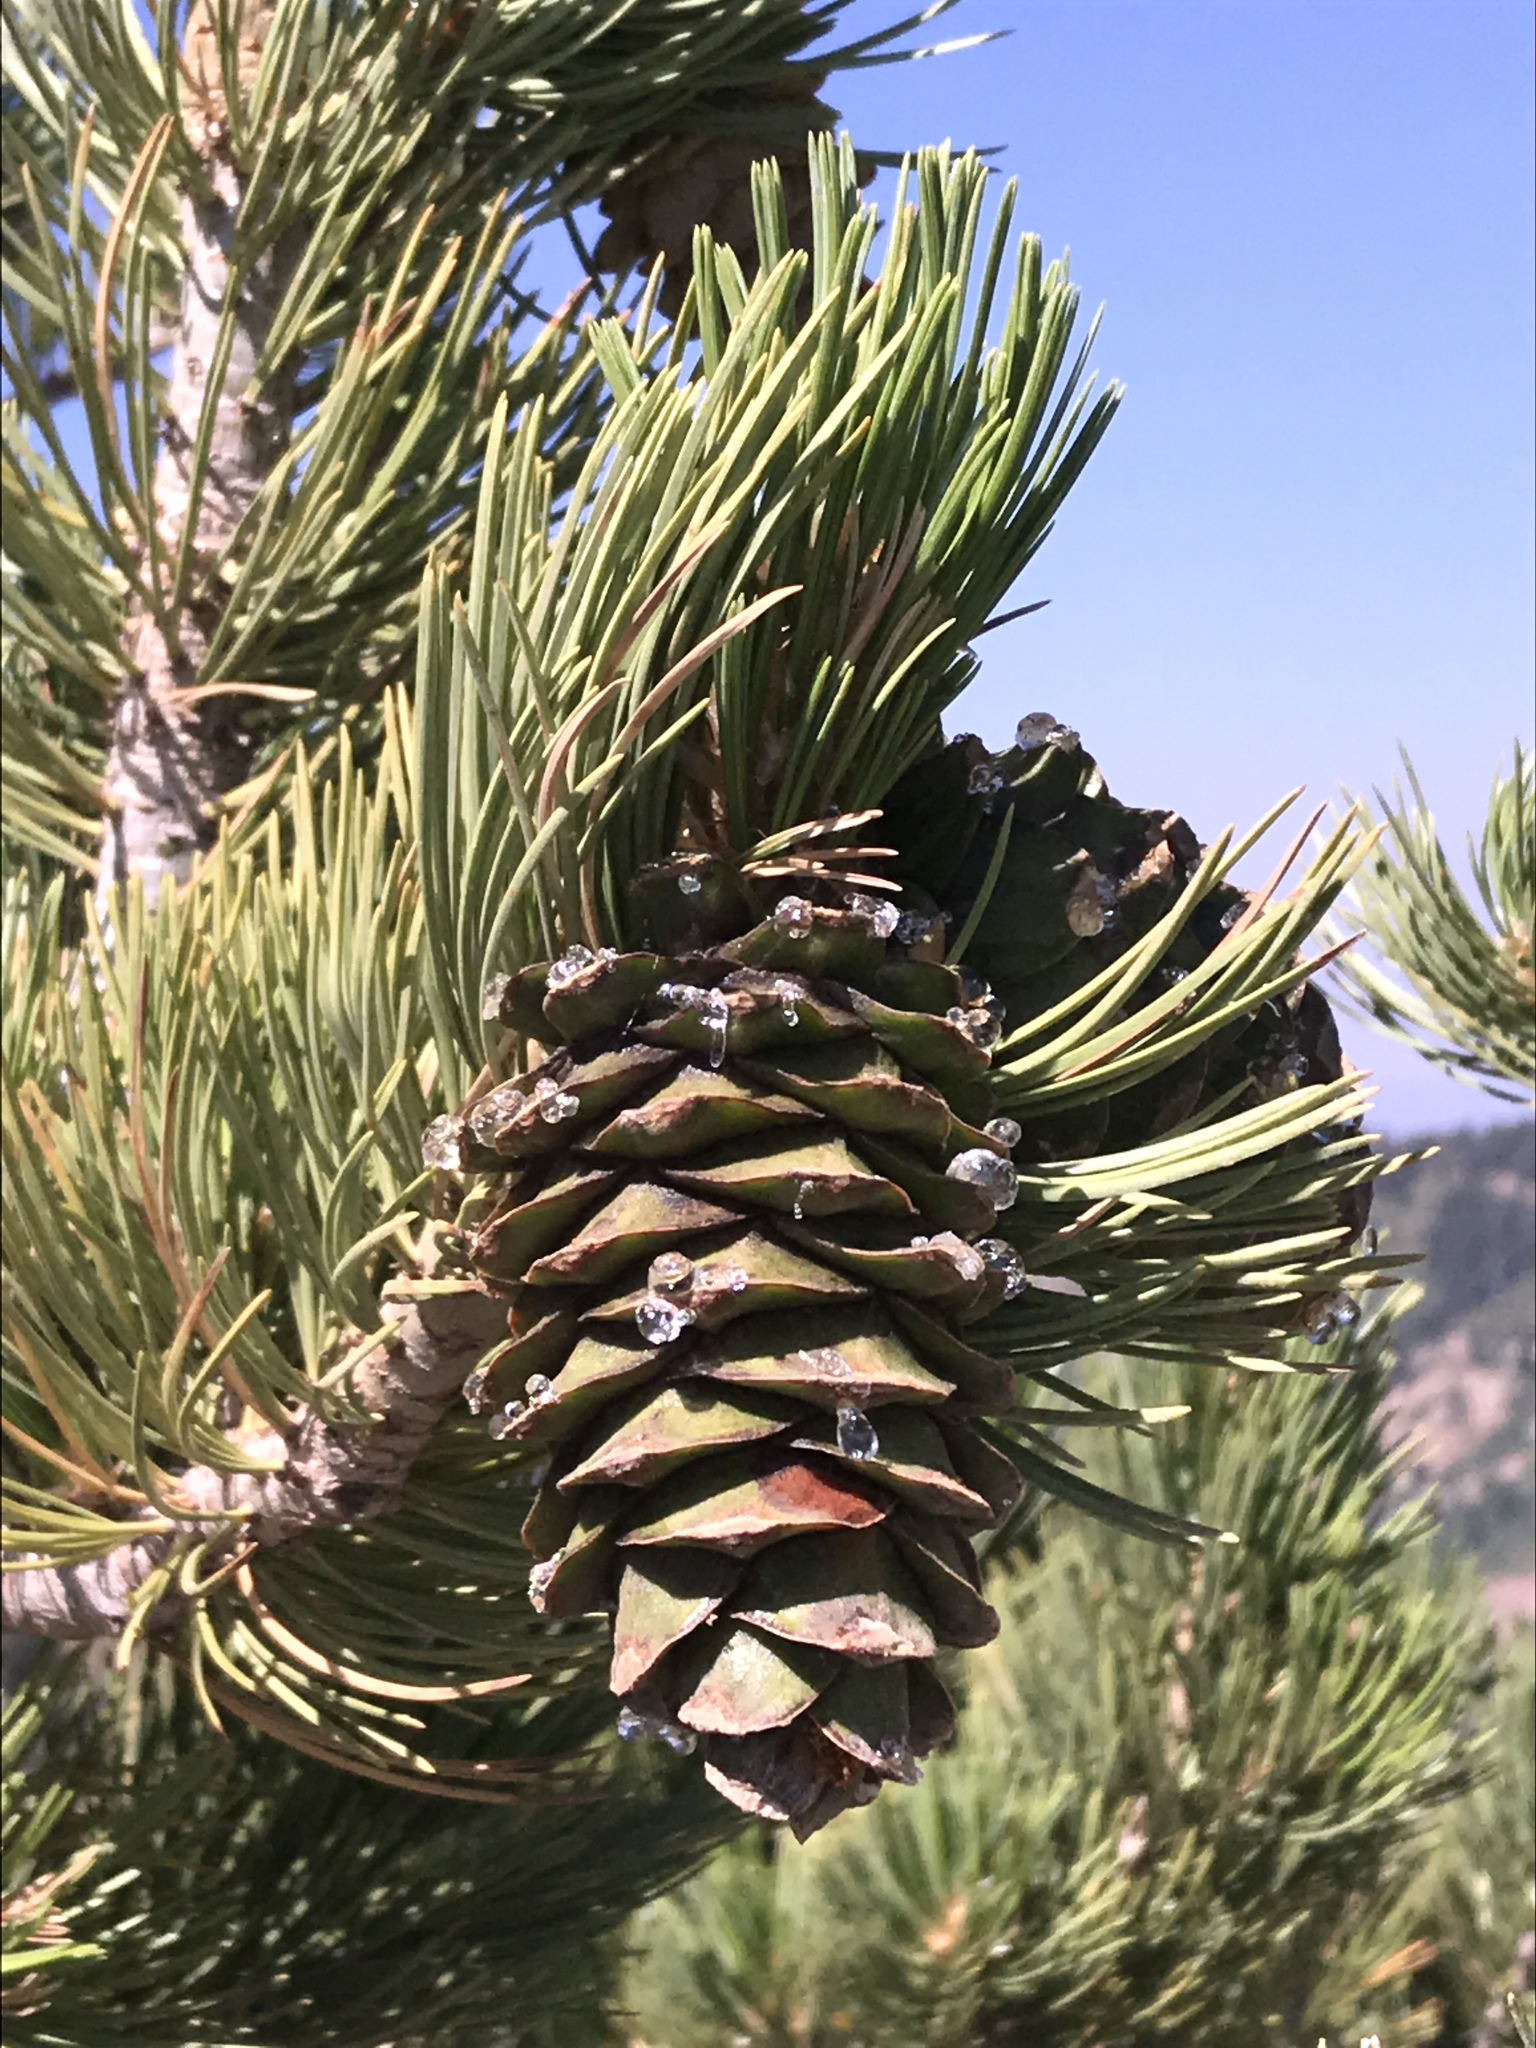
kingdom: Plantae
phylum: Tracheophyta
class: Pinopsida
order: Pinales
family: Pinaceae
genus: Pinus
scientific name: Pinus flexilis
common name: Limber pine
